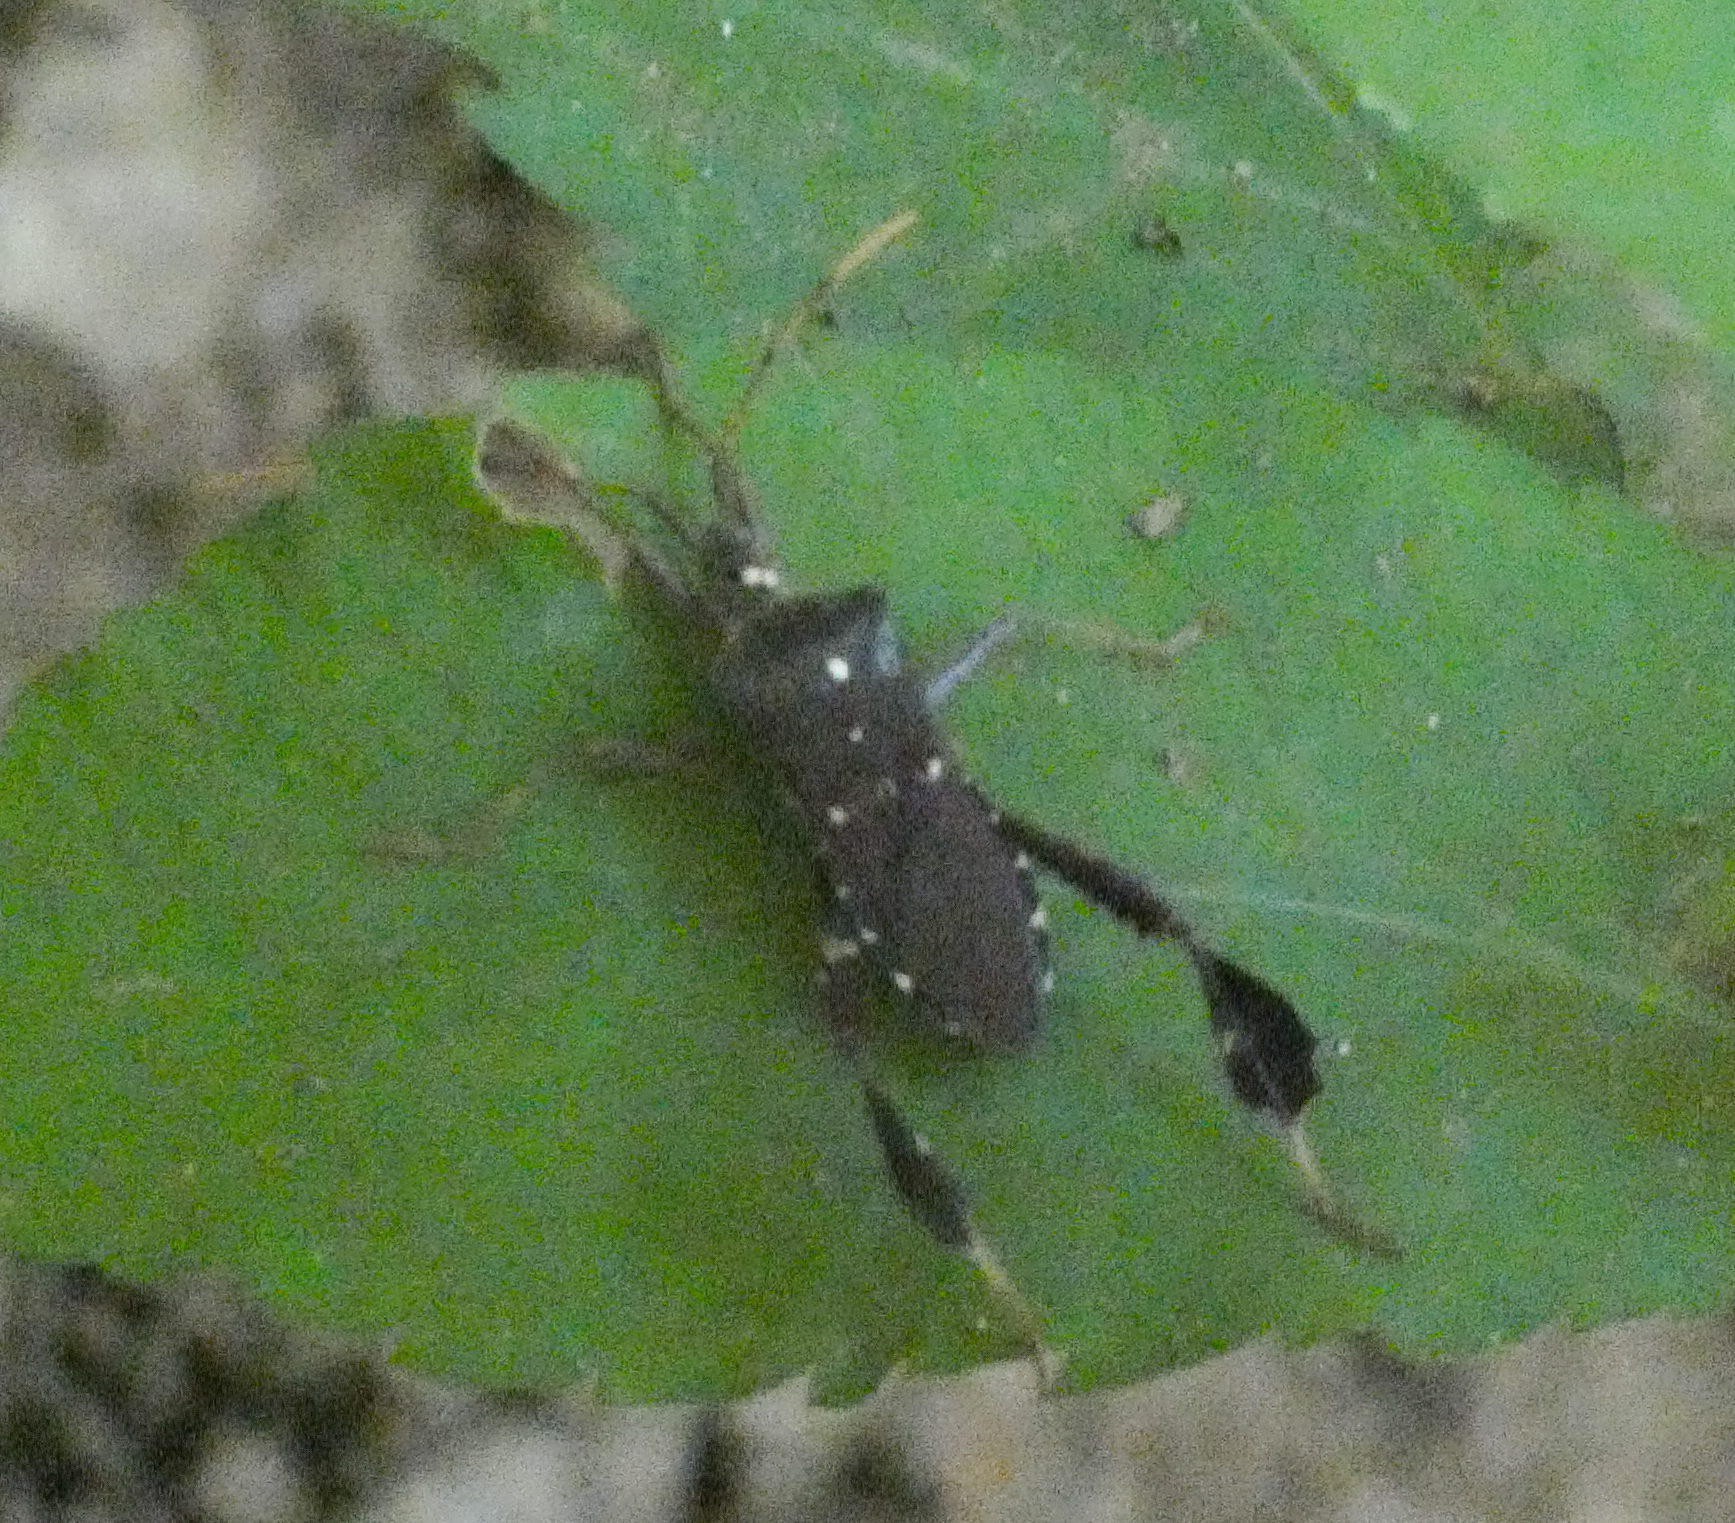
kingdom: Animalia
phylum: Arthropoda
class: Insecta
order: Hemiptera
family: Coreidae
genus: Leptoglossus
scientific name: Leptoglossus oppositus
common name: Northern leaf-footed bug
